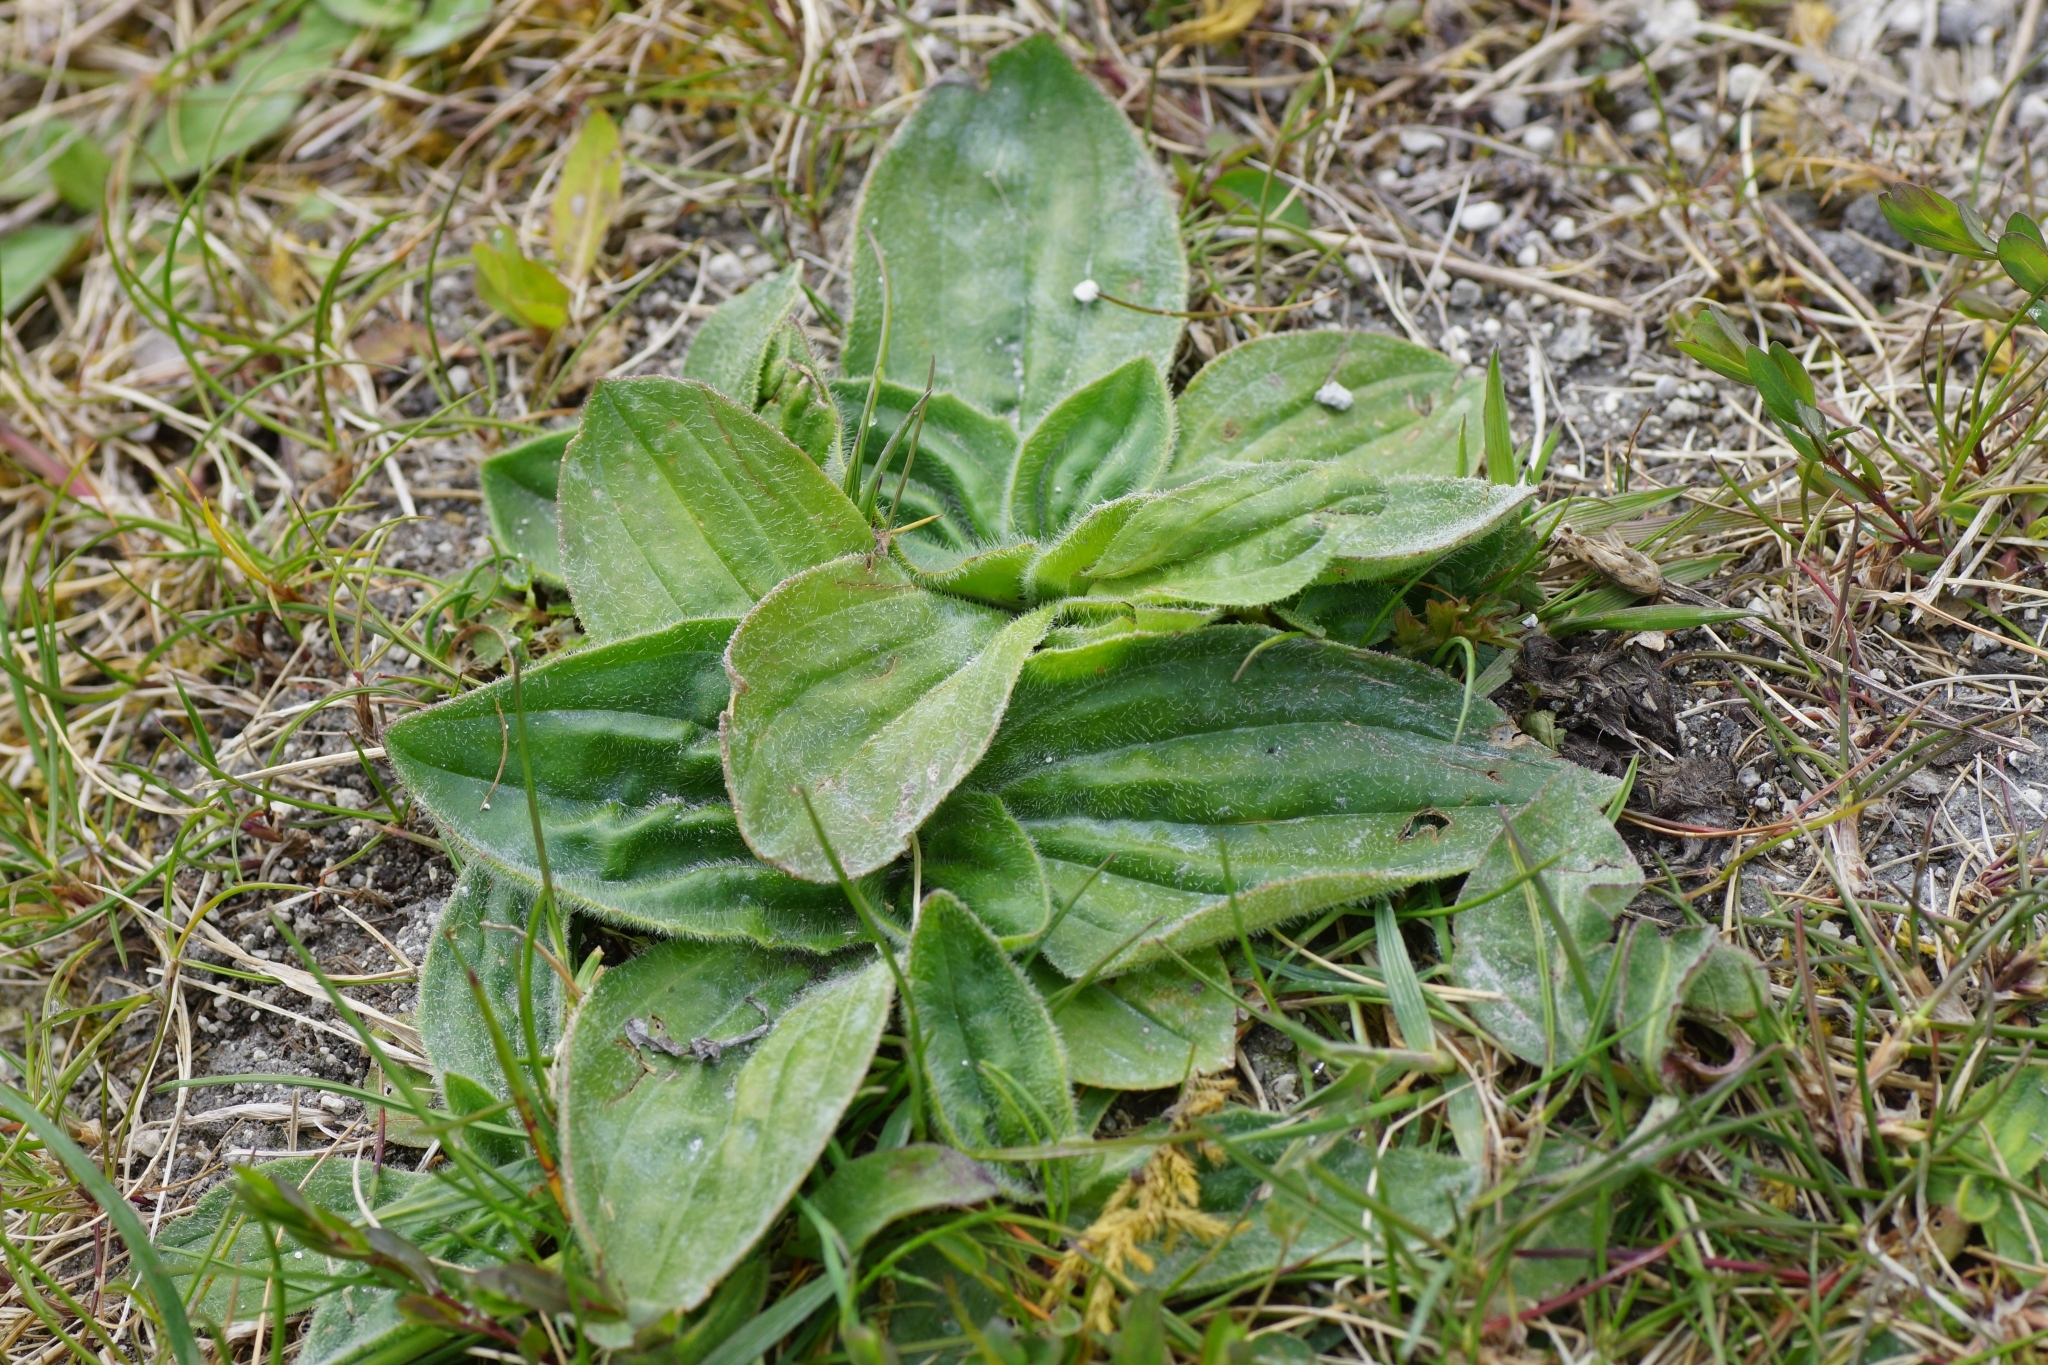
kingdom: Plantae
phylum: Tracheophyta
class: Magnoliopsida
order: Lamiales
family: Plantaginaceae
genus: Plantago
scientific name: Plantago media
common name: Hoary plantain
